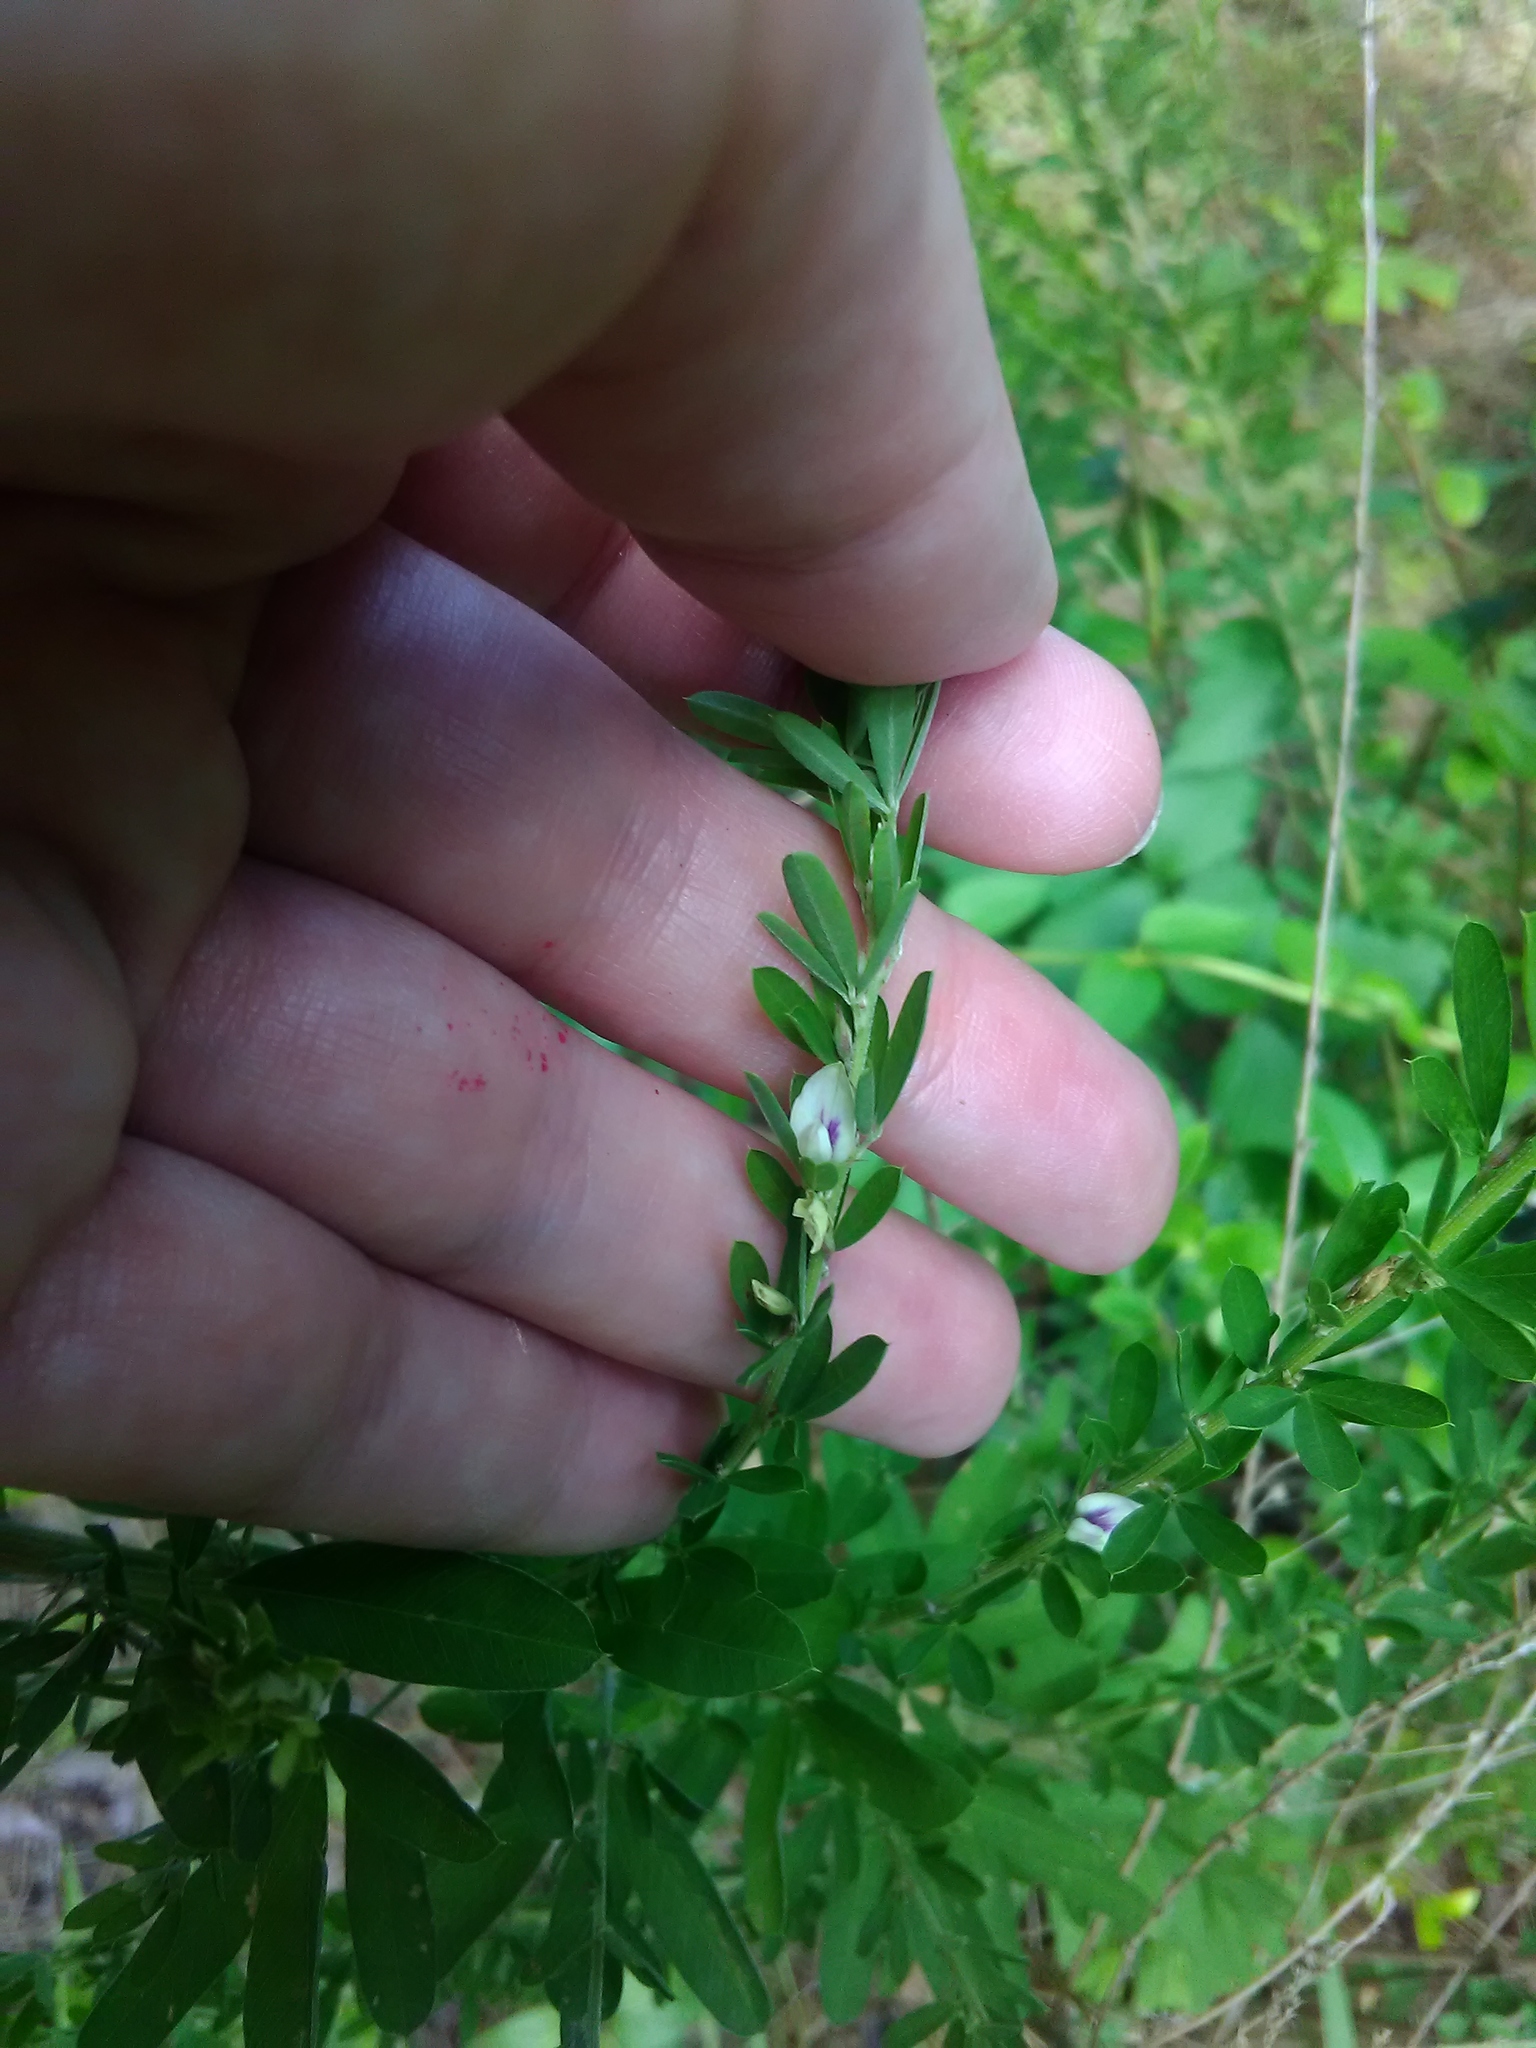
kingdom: Plantae
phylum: Tracheophyta
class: Magnoliopsida
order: Fabales
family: Fabaceae
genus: Lespedeza
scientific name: Lespedeza cuneata
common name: Chinese bush-clover
